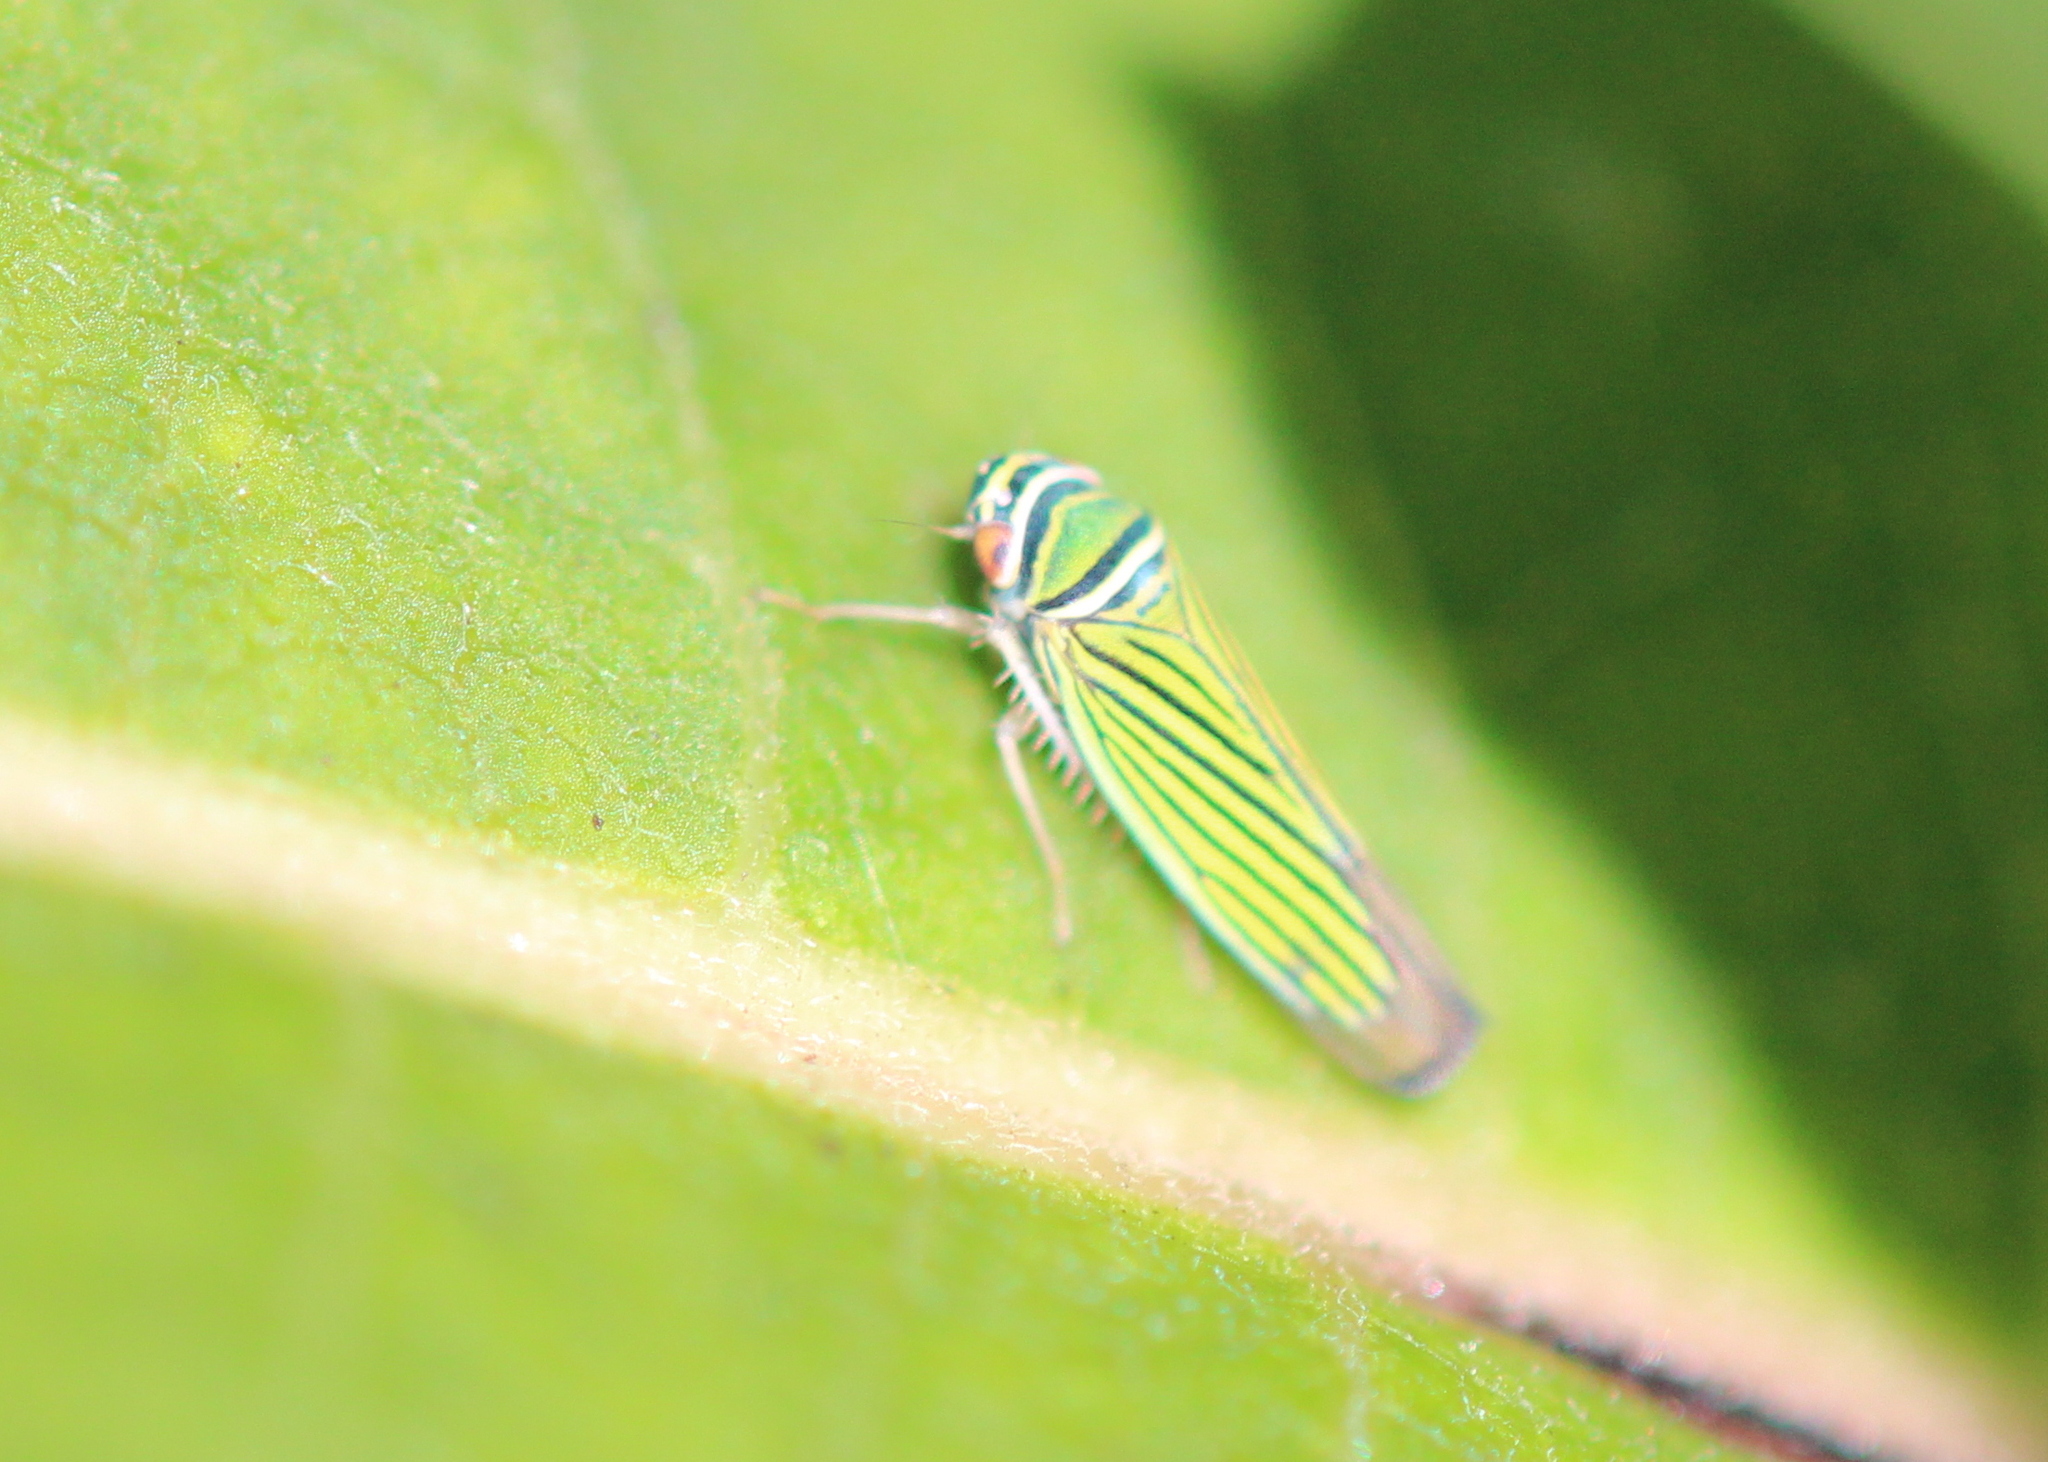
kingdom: Animalia
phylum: Arthropoda
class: Insecta
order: Hemiptera
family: Cicadellidae
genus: Tylozygus
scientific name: Tylozygus bifidus
